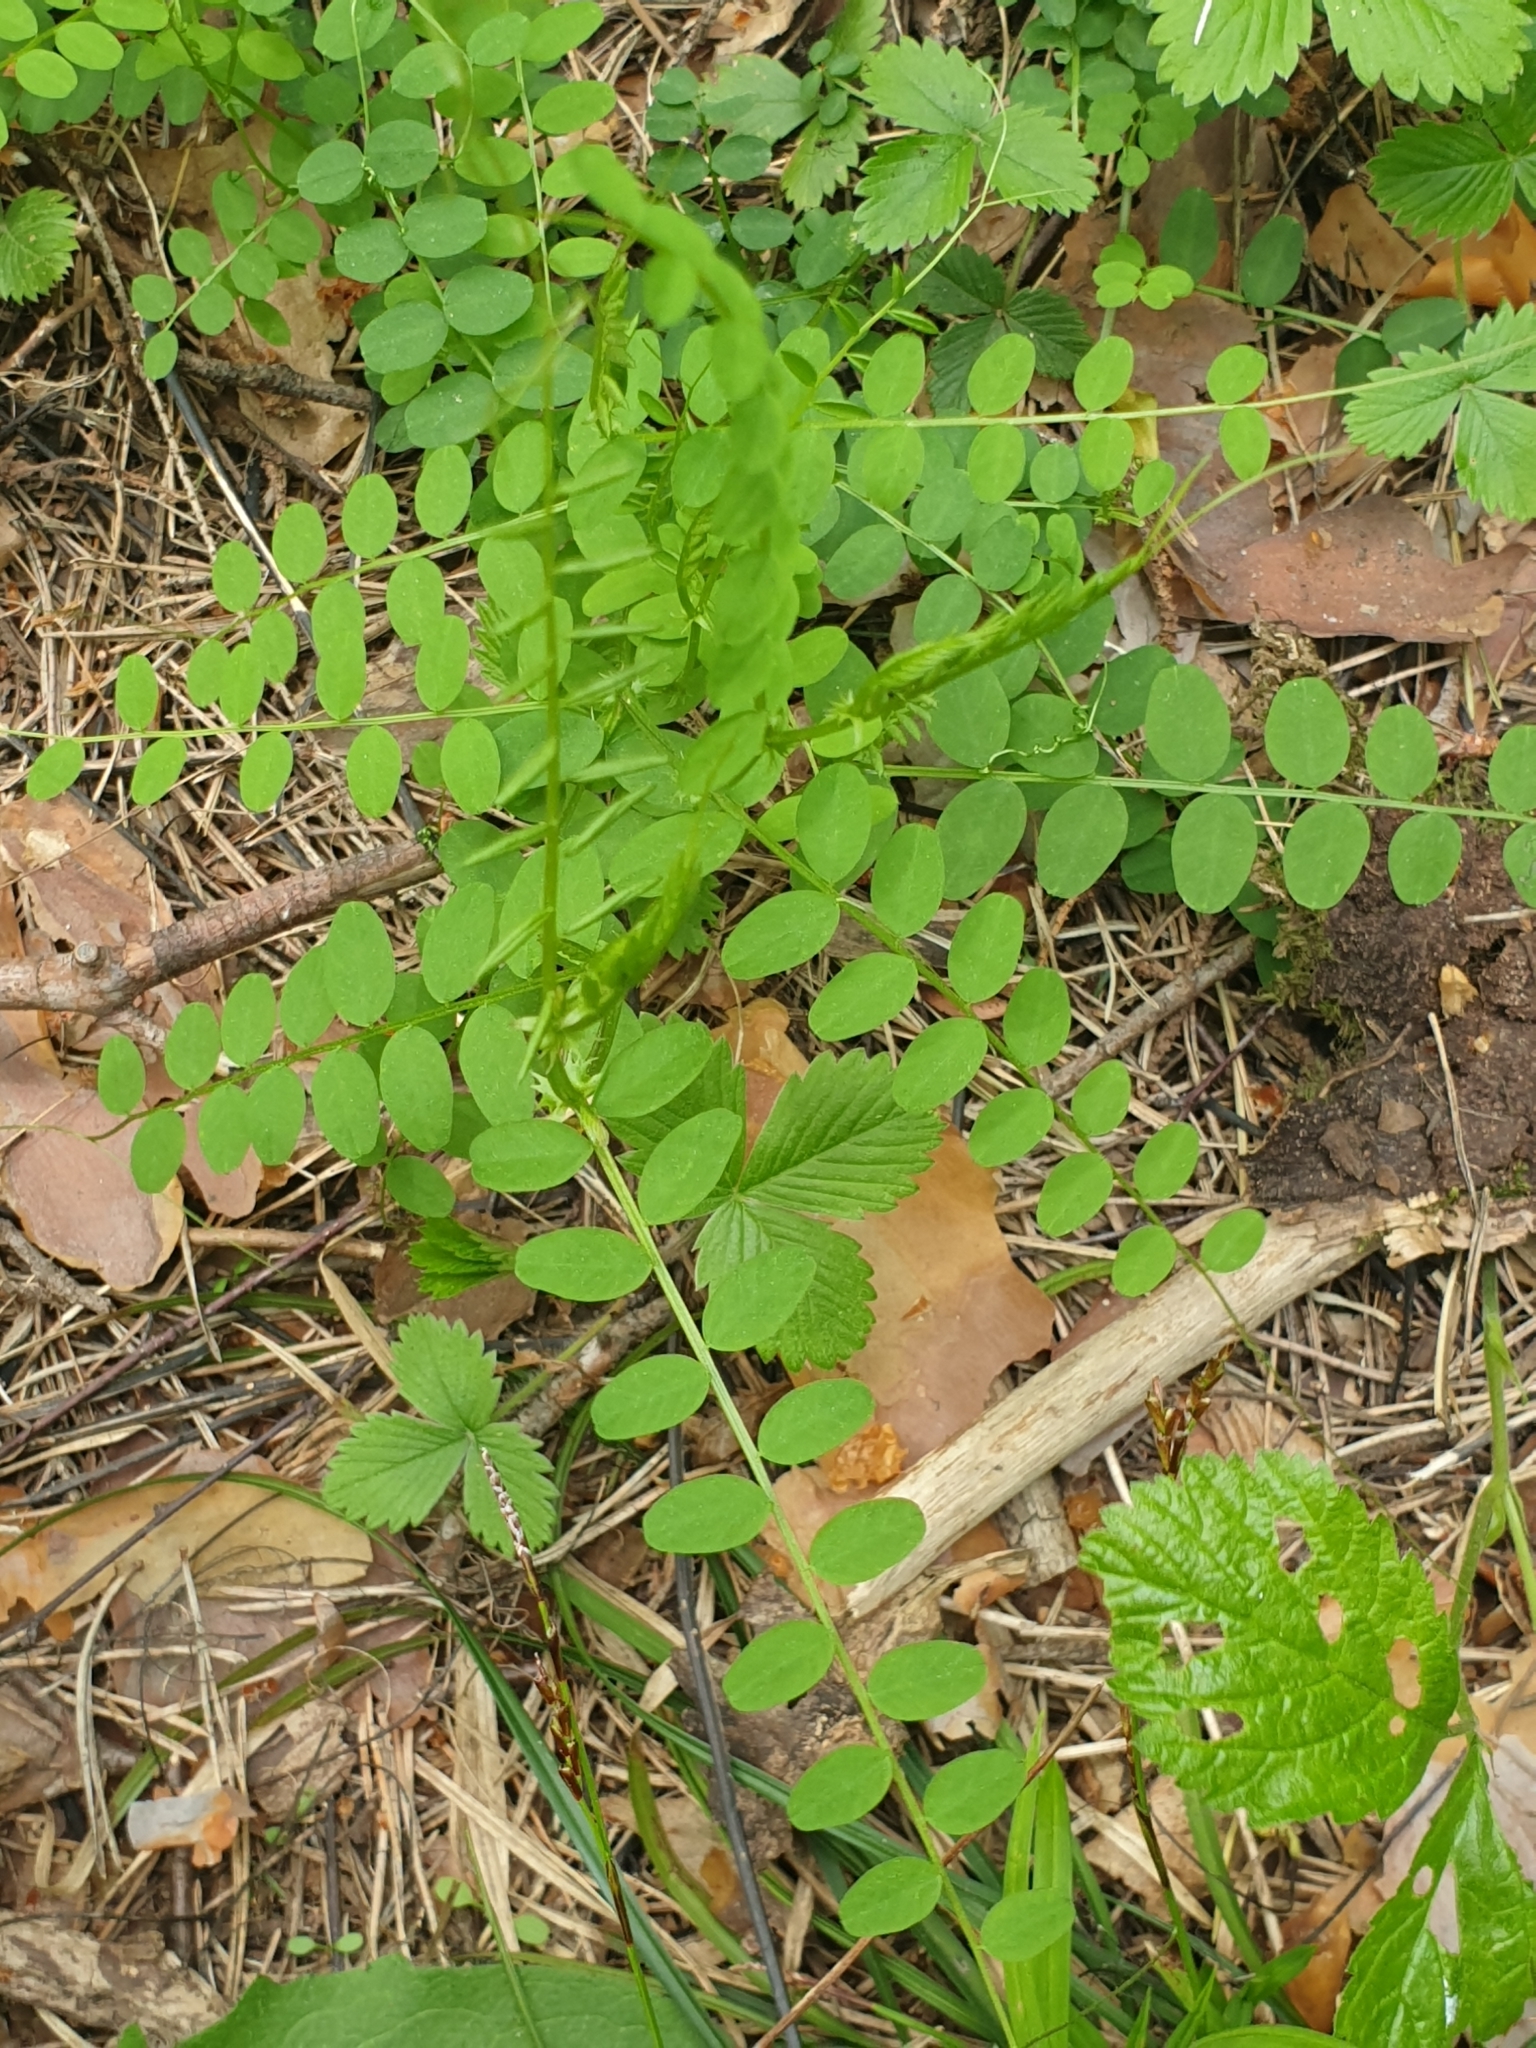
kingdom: Plantae
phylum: Tracheophyta
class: Magnoliopsida
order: Fabales
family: Fabaceae
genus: Vicia
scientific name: Vicia sylvatica
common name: Wood vetch
